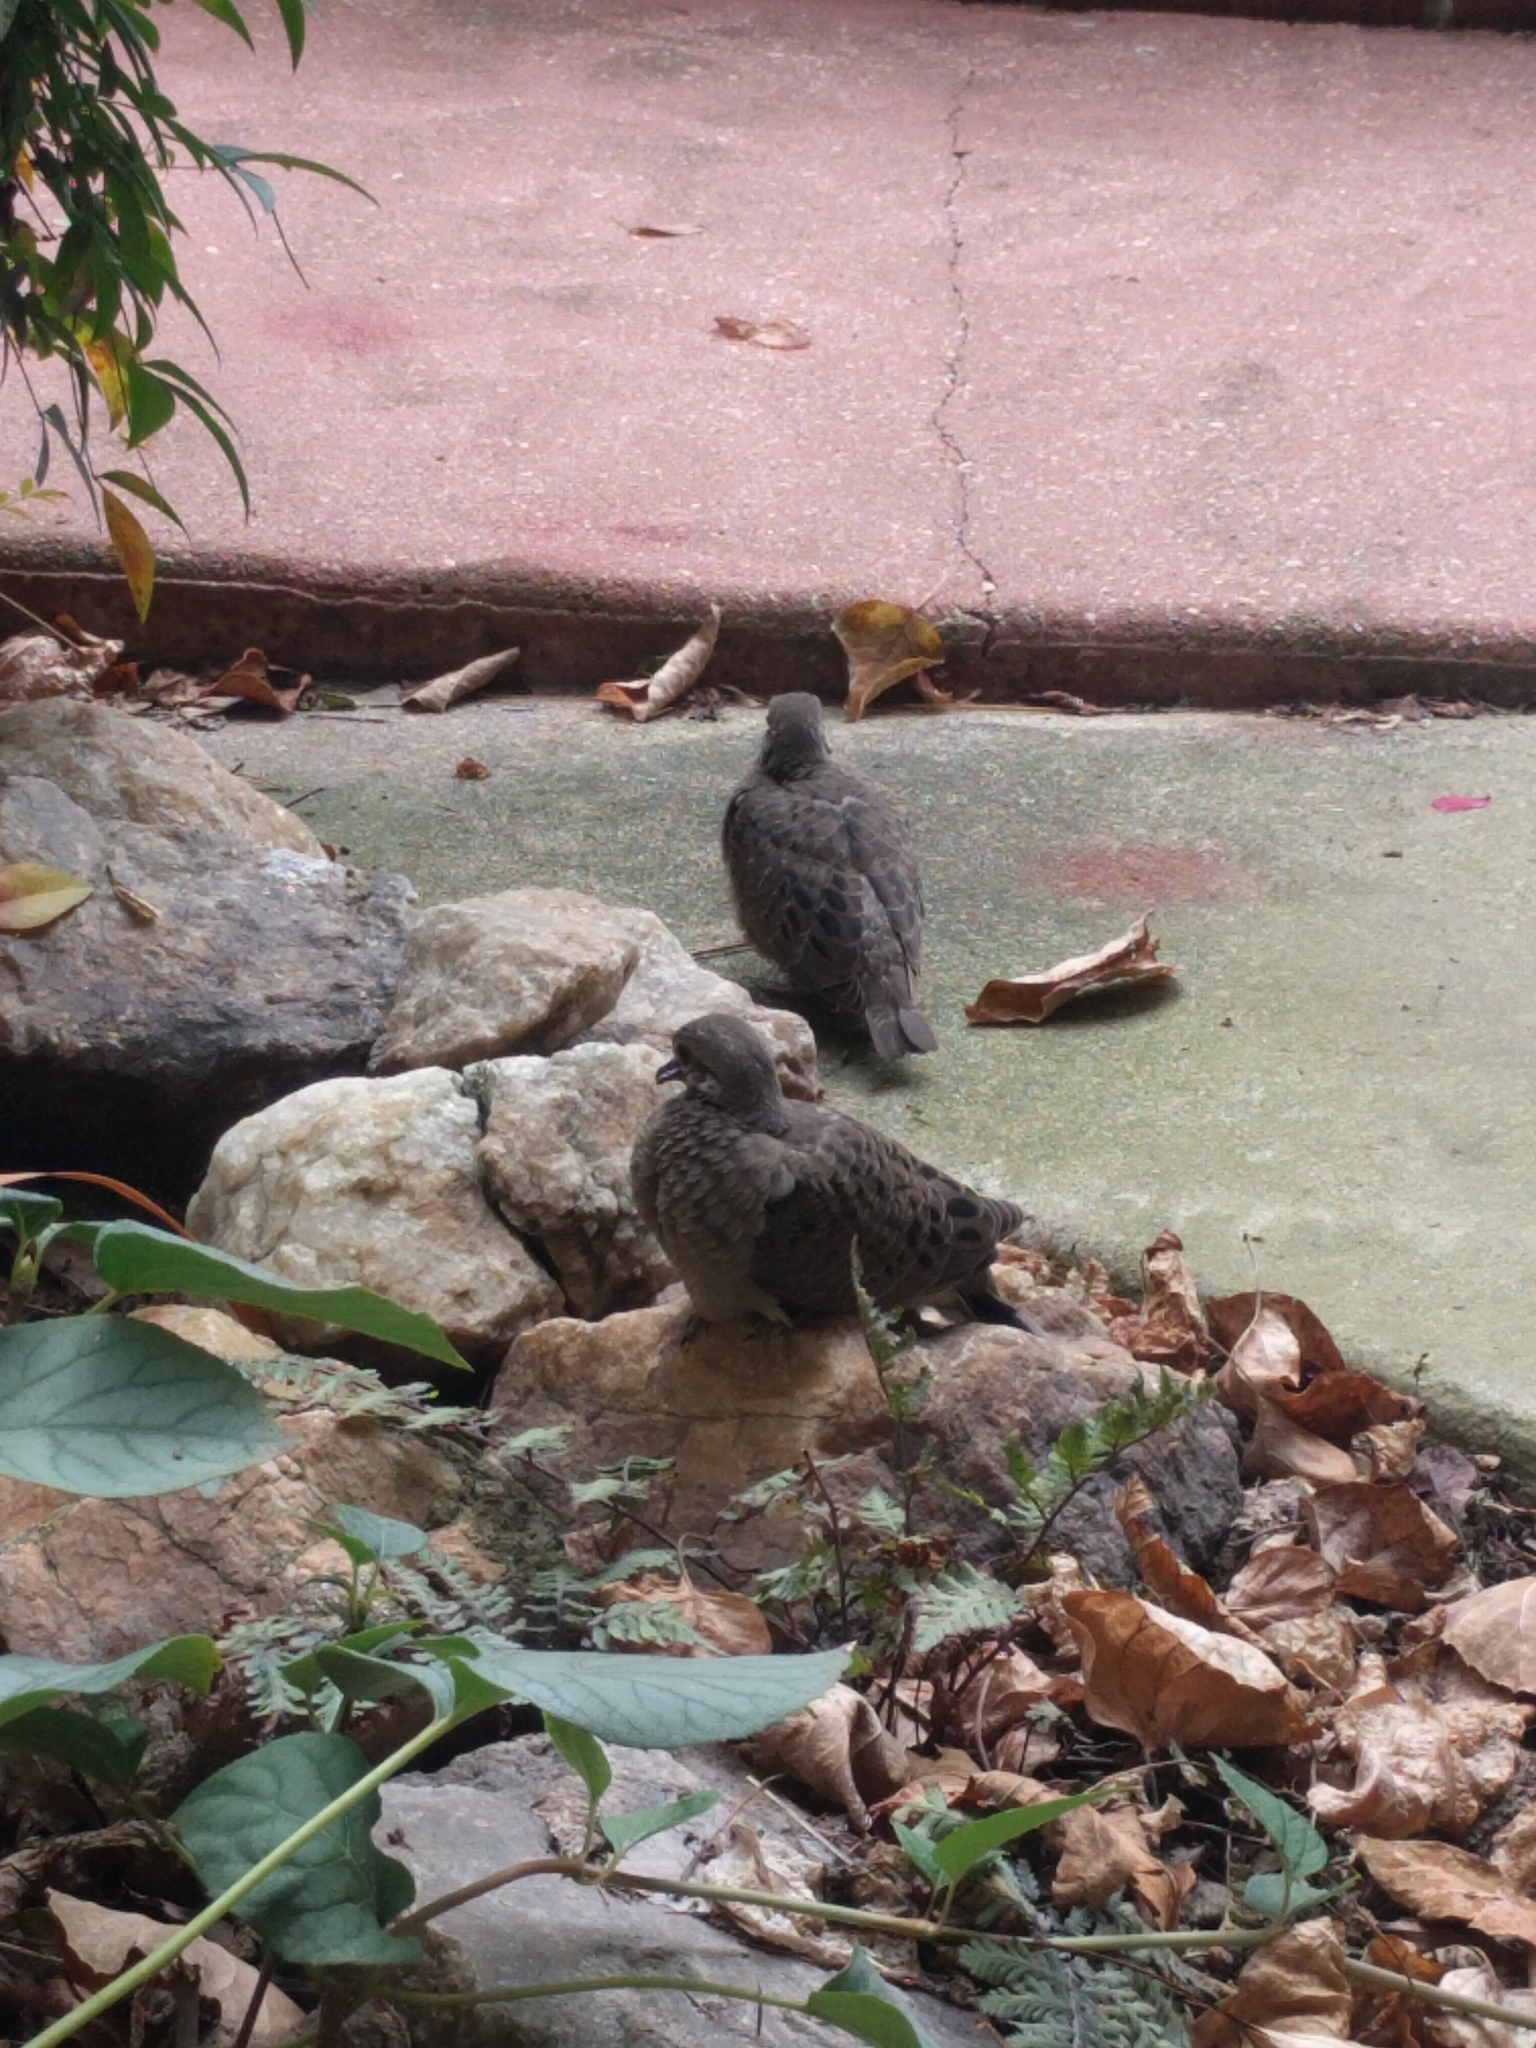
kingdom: Animalia
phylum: Chordata
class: Aves
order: Columbiformes
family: Columbidae
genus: Zenaida
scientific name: Zenaida macroura
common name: Mourning dove
